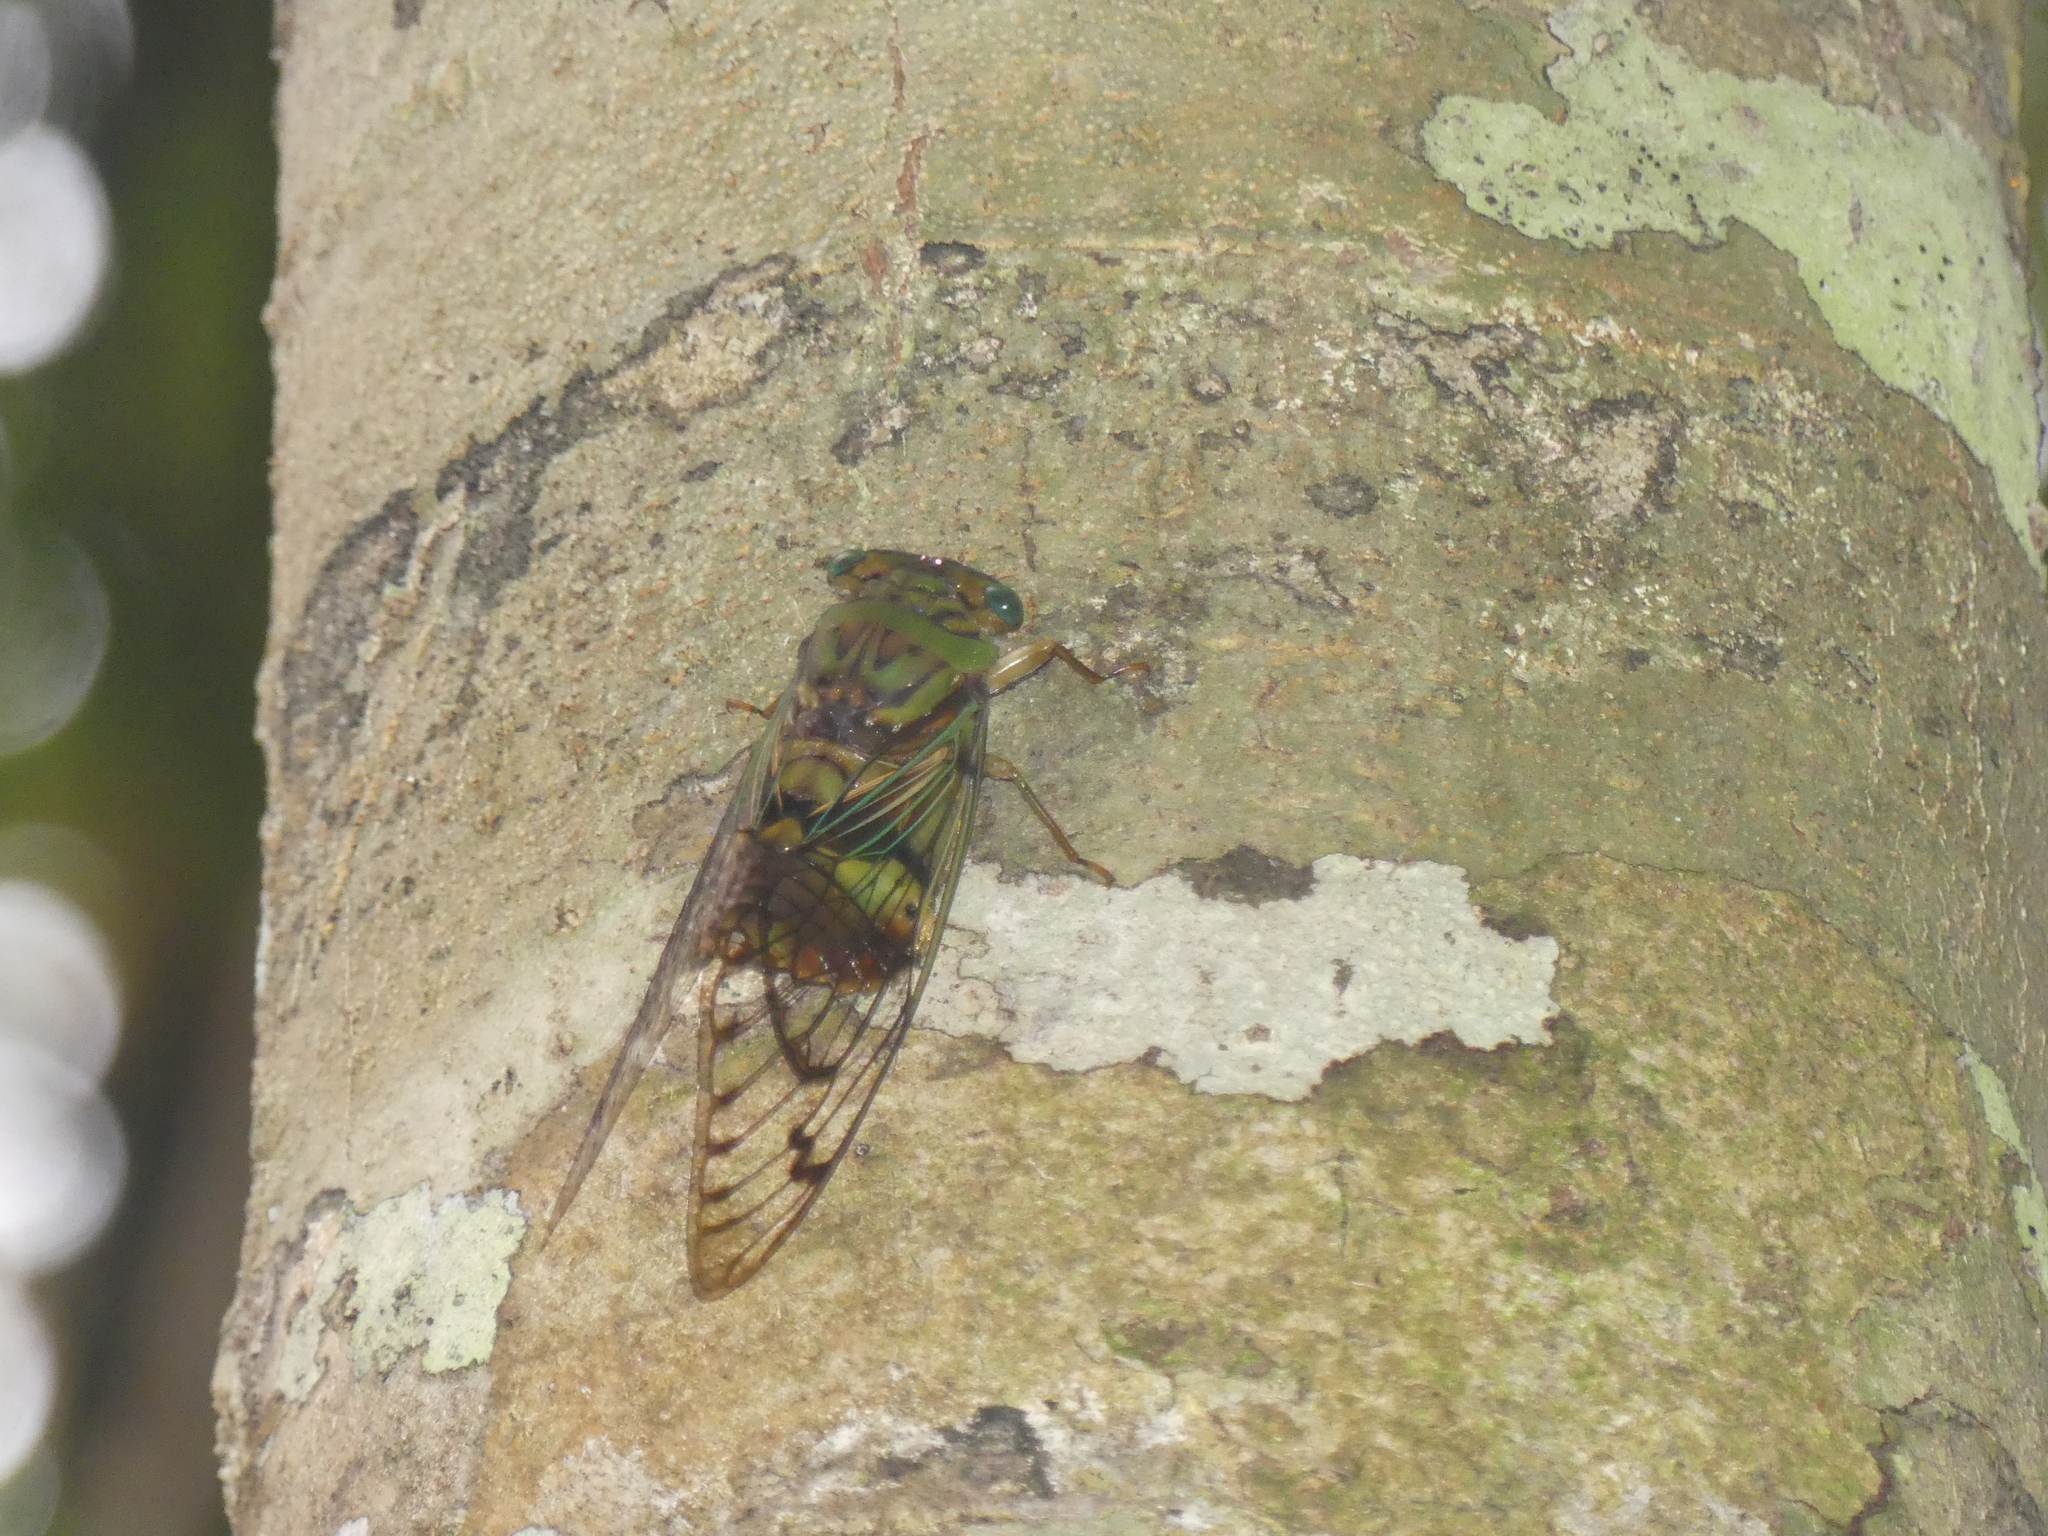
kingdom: Animalia
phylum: Arthropoda
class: Insecta
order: Hemiptera
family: Cicadidae
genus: Anapsaltoda
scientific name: Anapsaltoda pulchra
